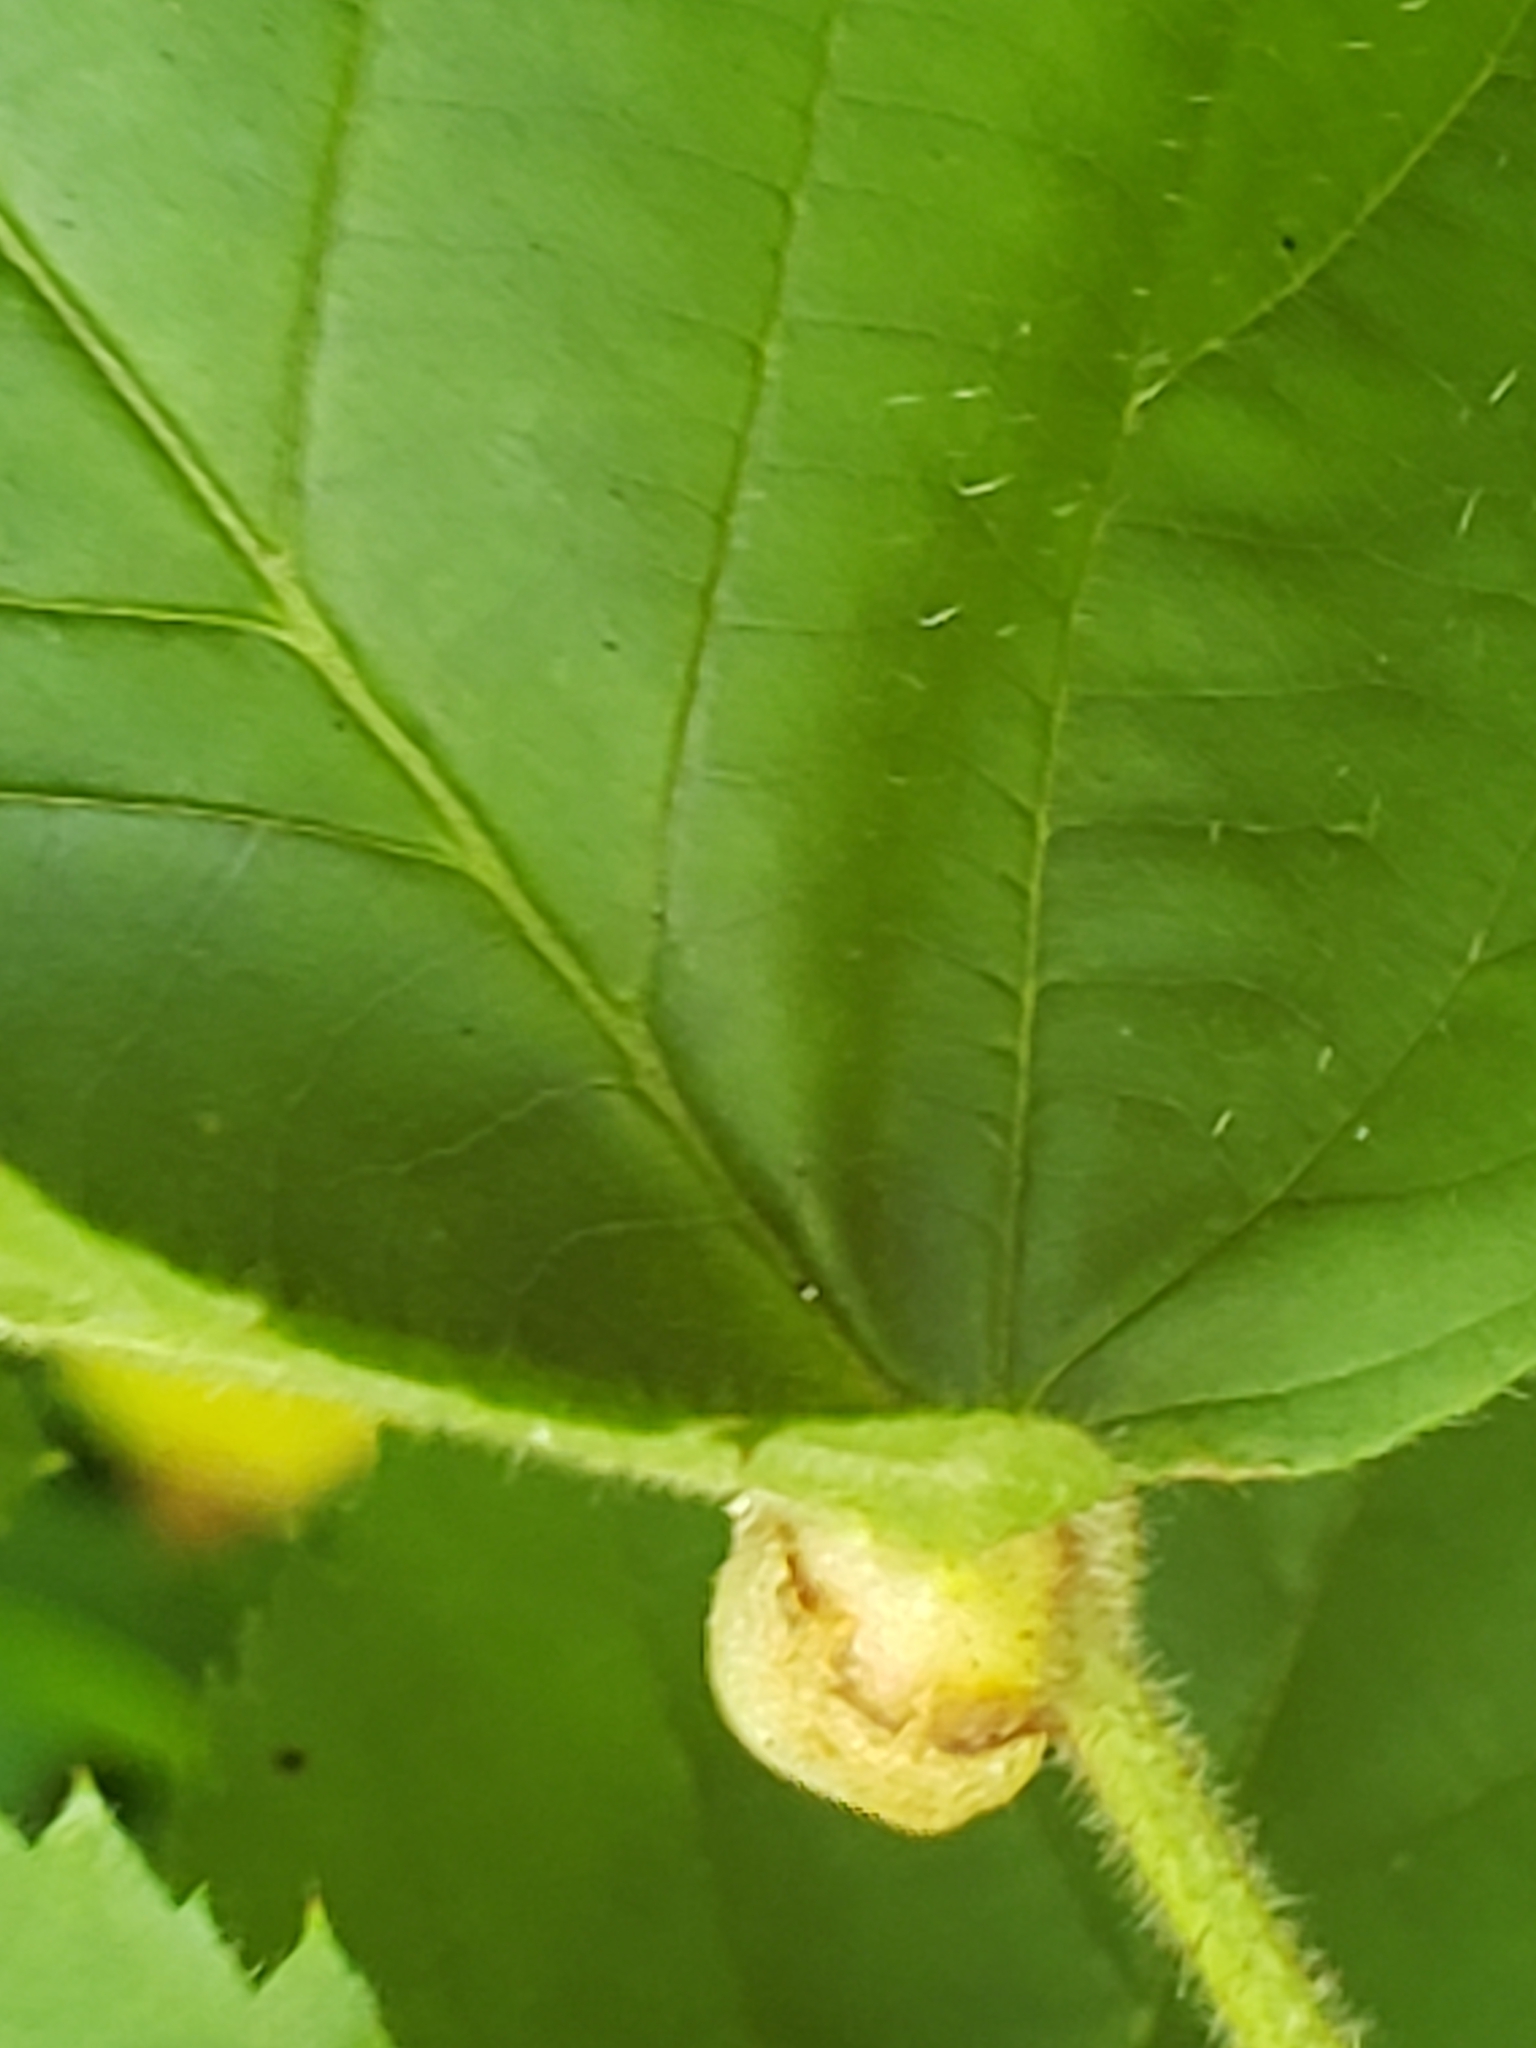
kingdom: Animalia
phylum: Arthropoda
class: Insecta
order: Diptera
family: Cecidomyiidae
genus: Neolasioptera
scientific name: Neolasioptera farinosa
